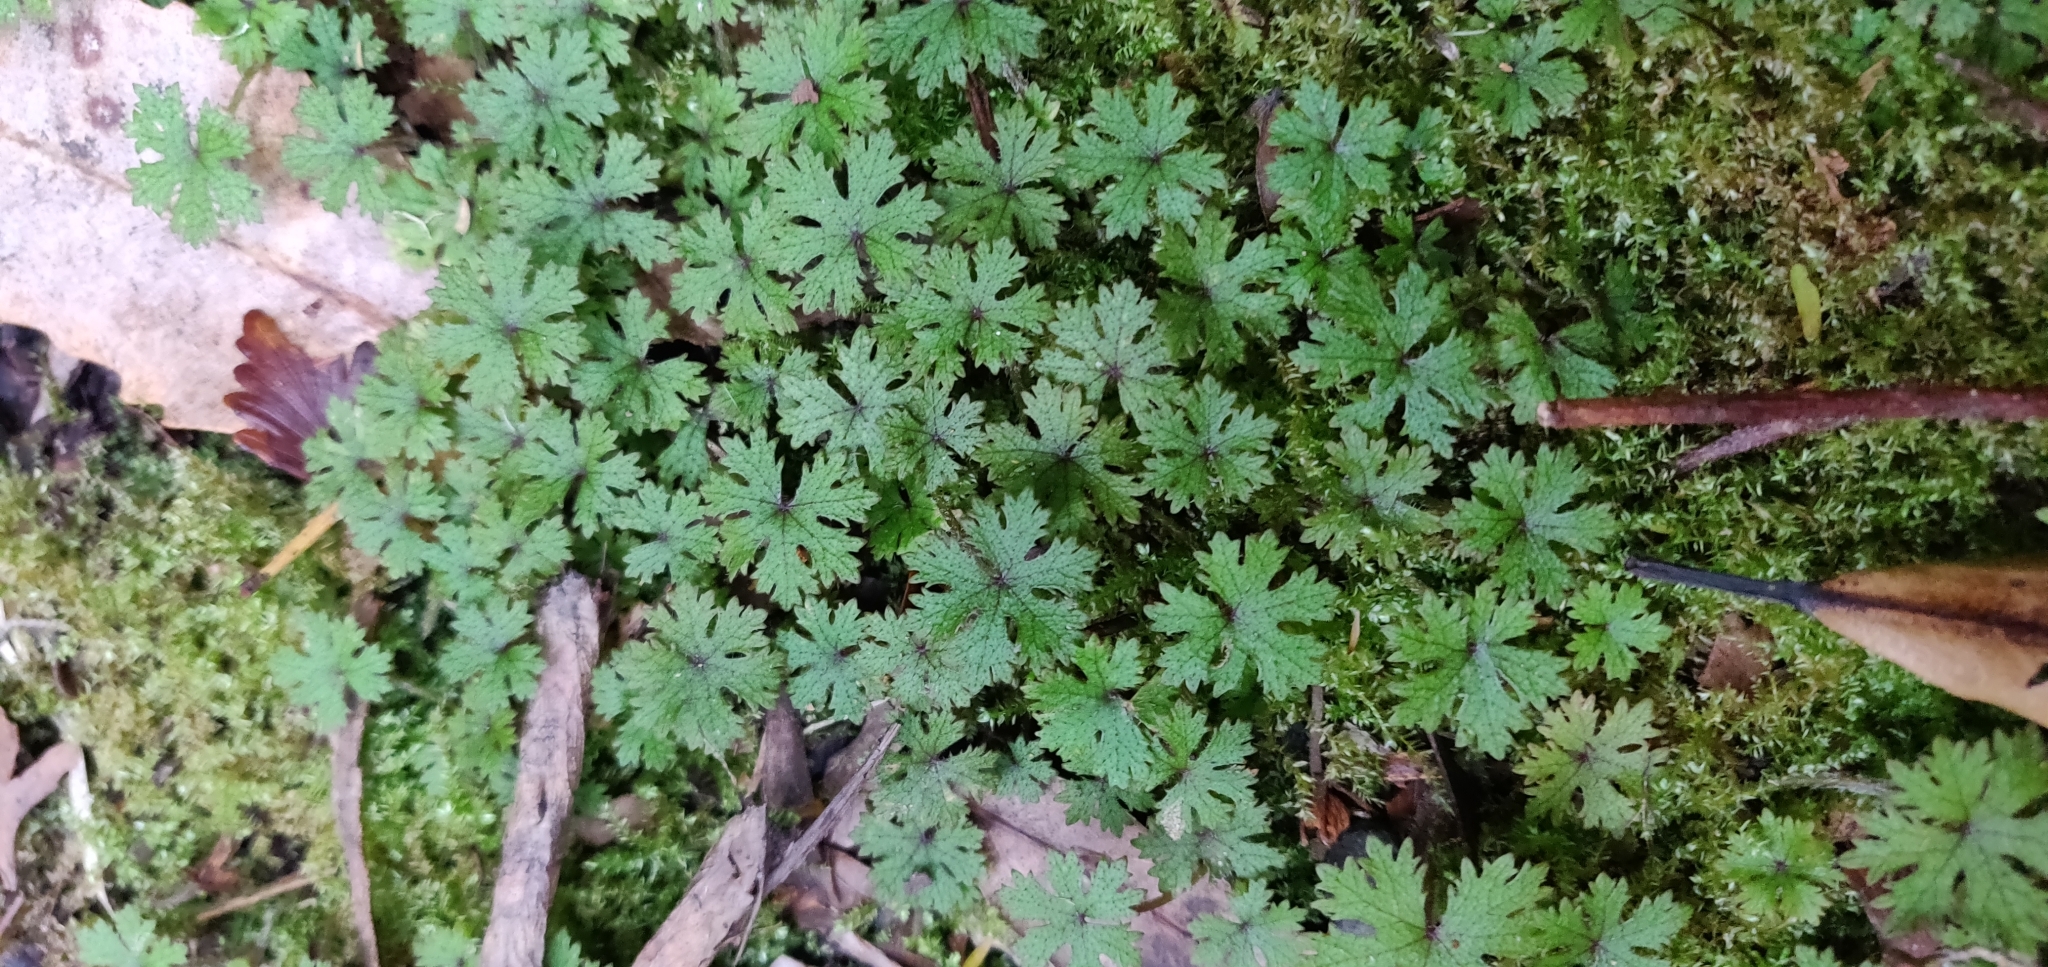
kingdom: Plantae
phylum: Tracheophyta
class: Magnoliopsida
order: Apiales
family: Araliaceae
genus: Hydrocotyle
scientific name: Hydrocotyle dissecta
